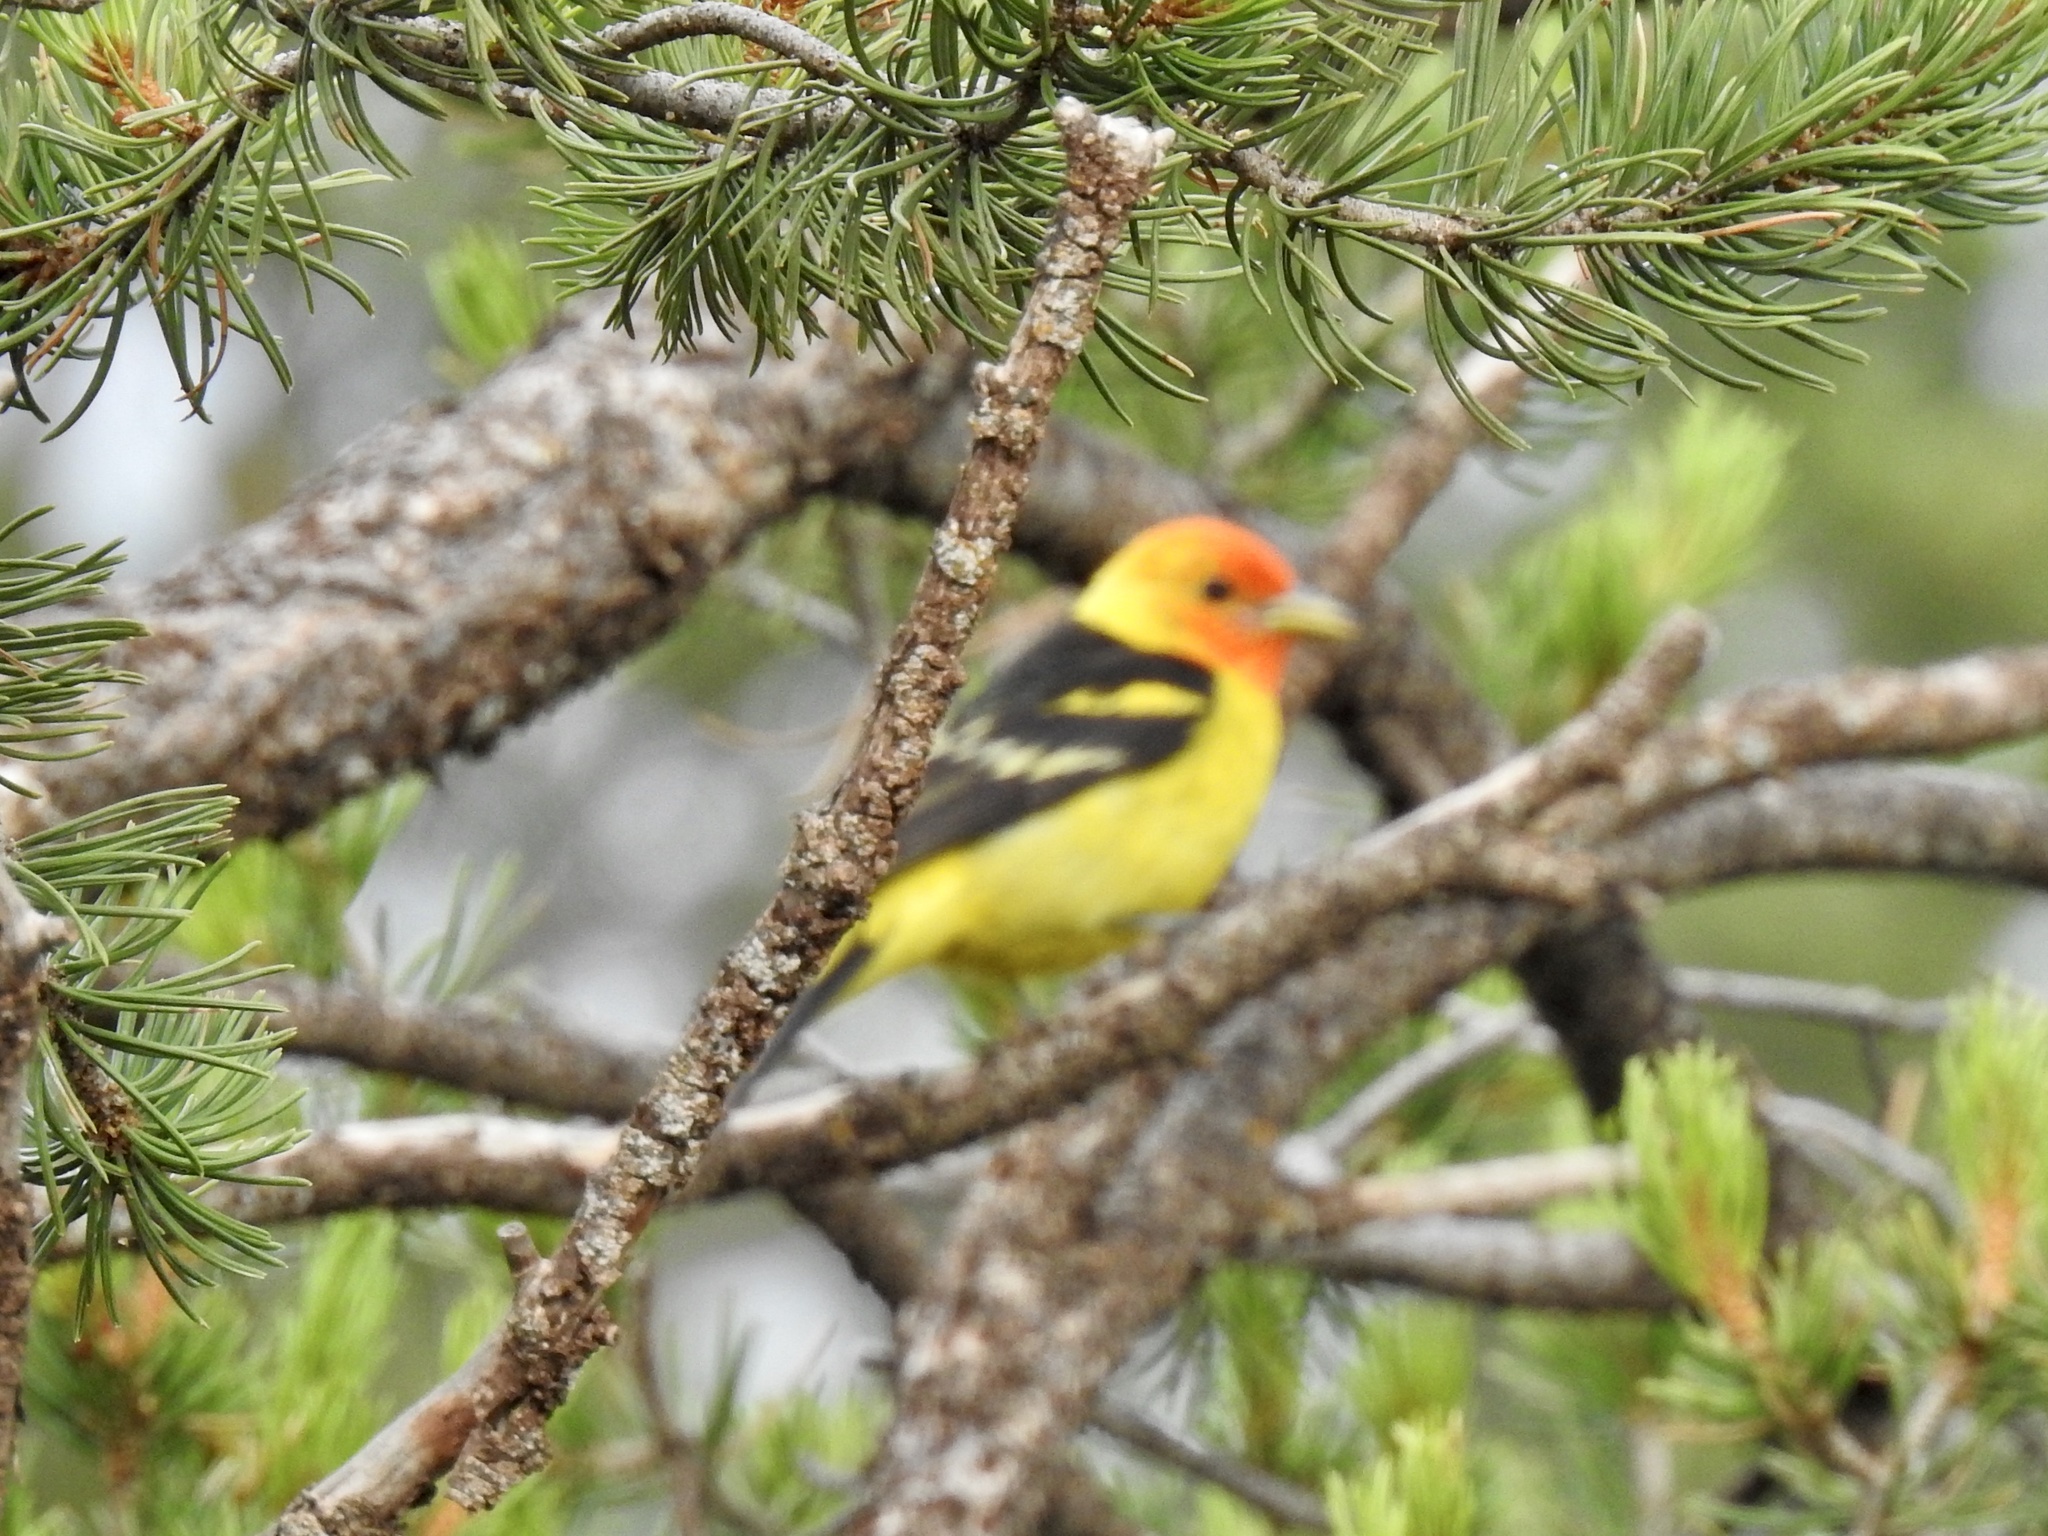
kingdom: Animalia
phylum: Chordata
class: Aves
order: Passeriformes
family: Cardinalidae
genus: Piranga
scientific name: Piranga ludoviciana
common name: Western tanager
